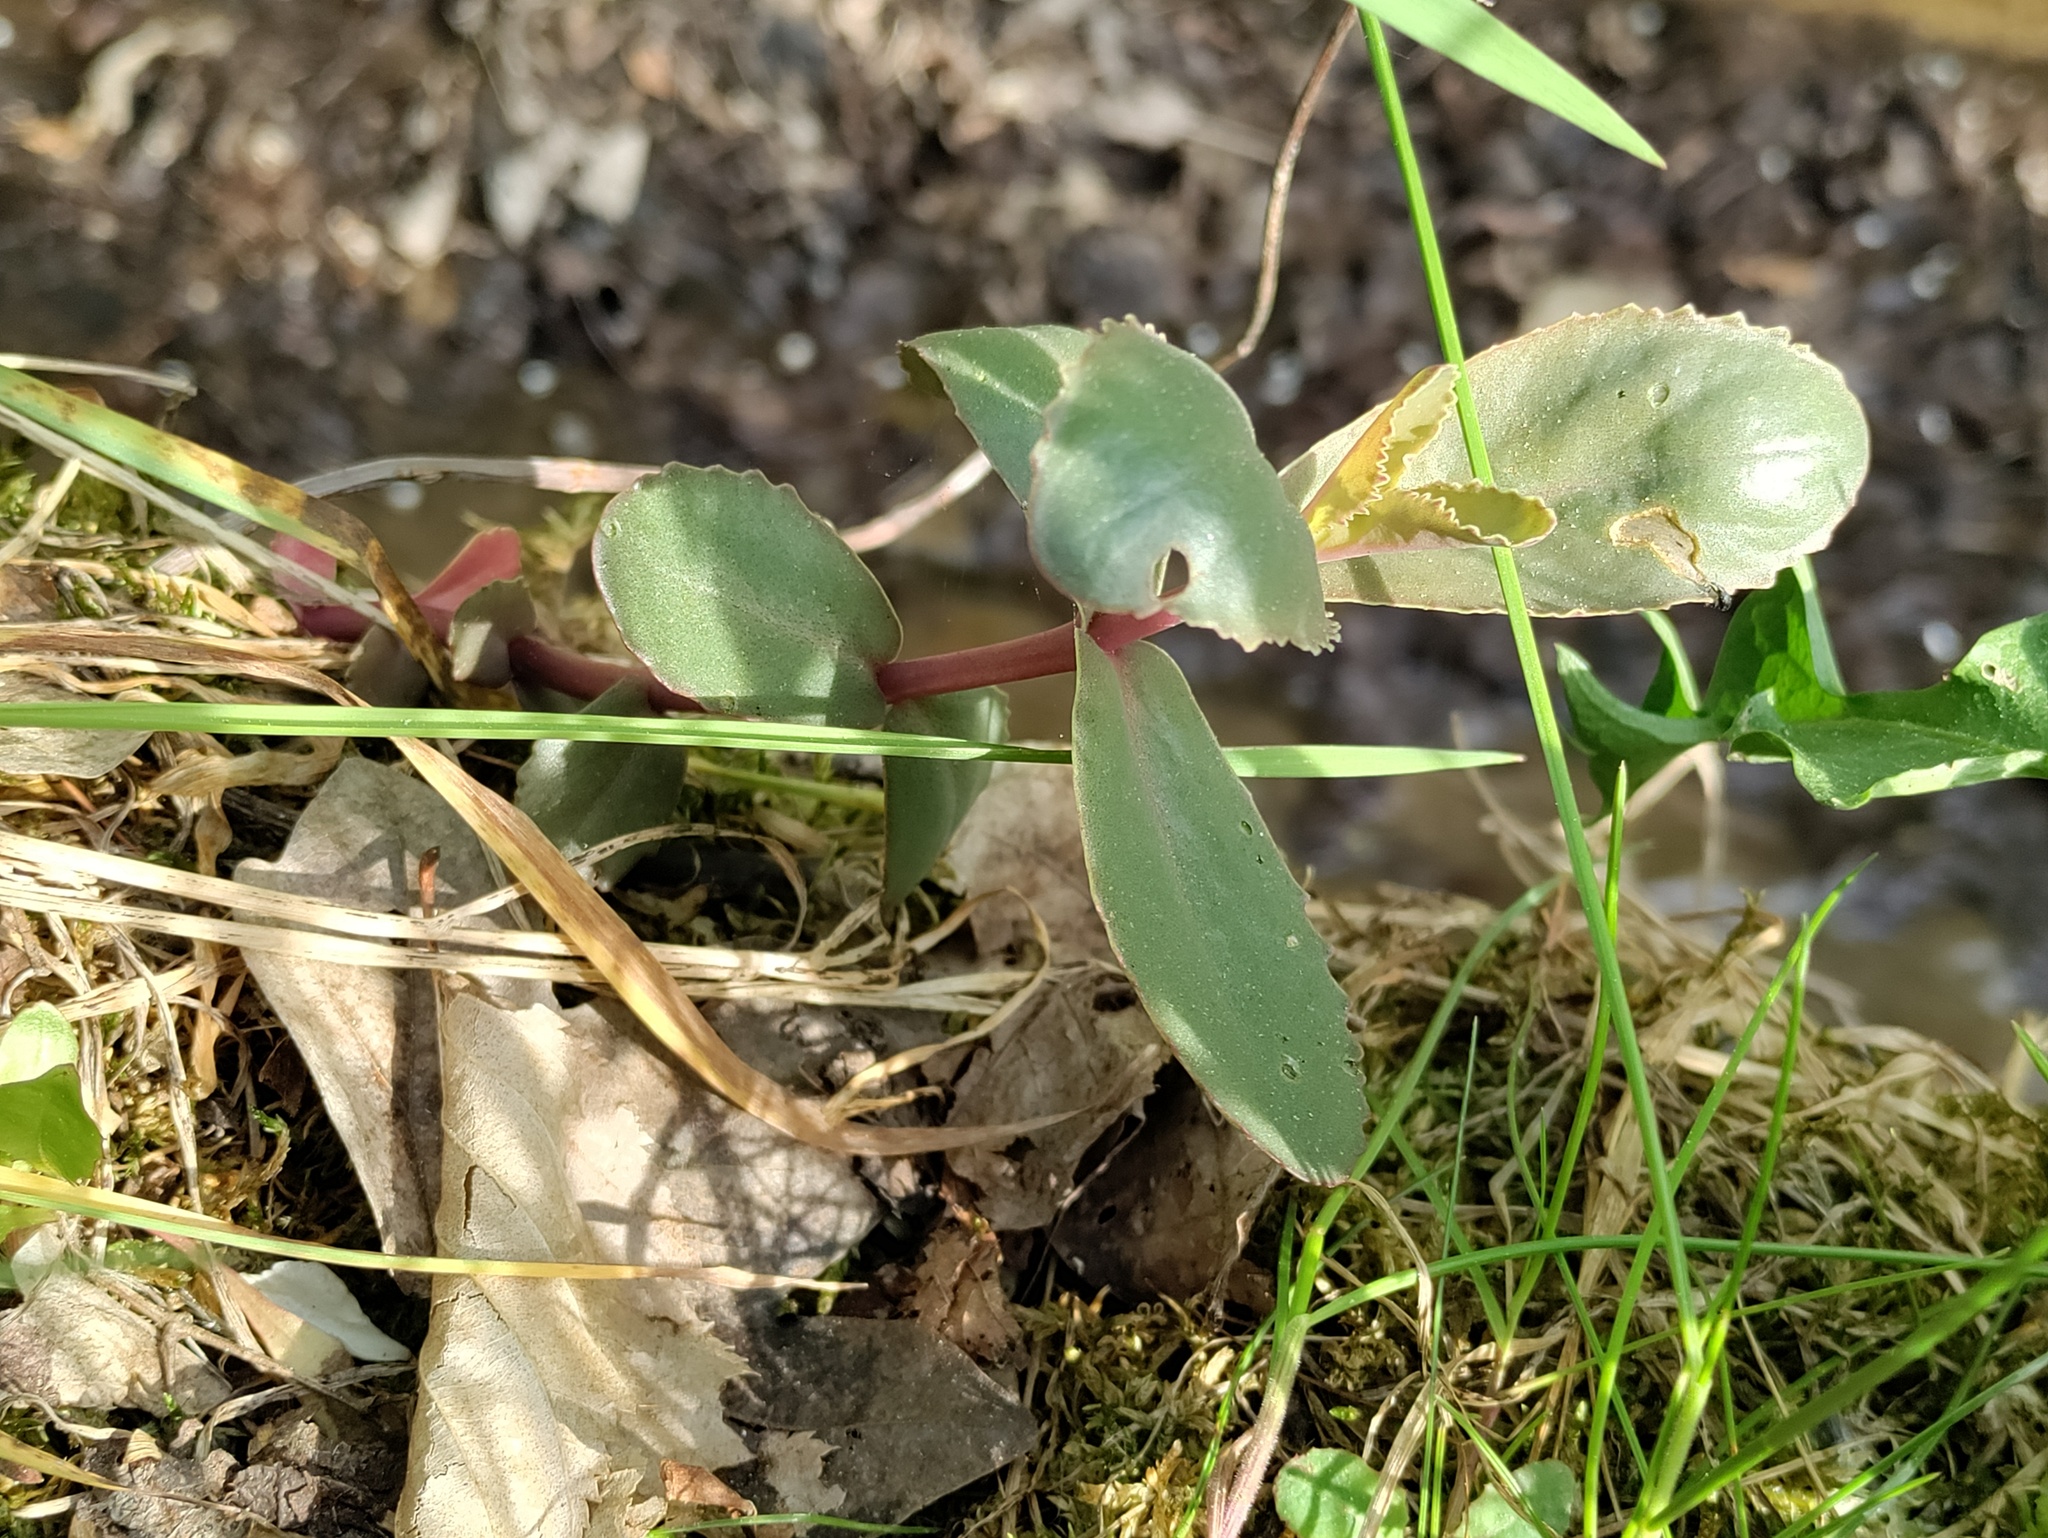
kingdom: Plantae
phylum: Tracheophyta
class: Magnoliopsida
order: Saxifragales
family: Crassulaceae
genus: Hylotelephium
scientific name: Hylotelephium maximum
